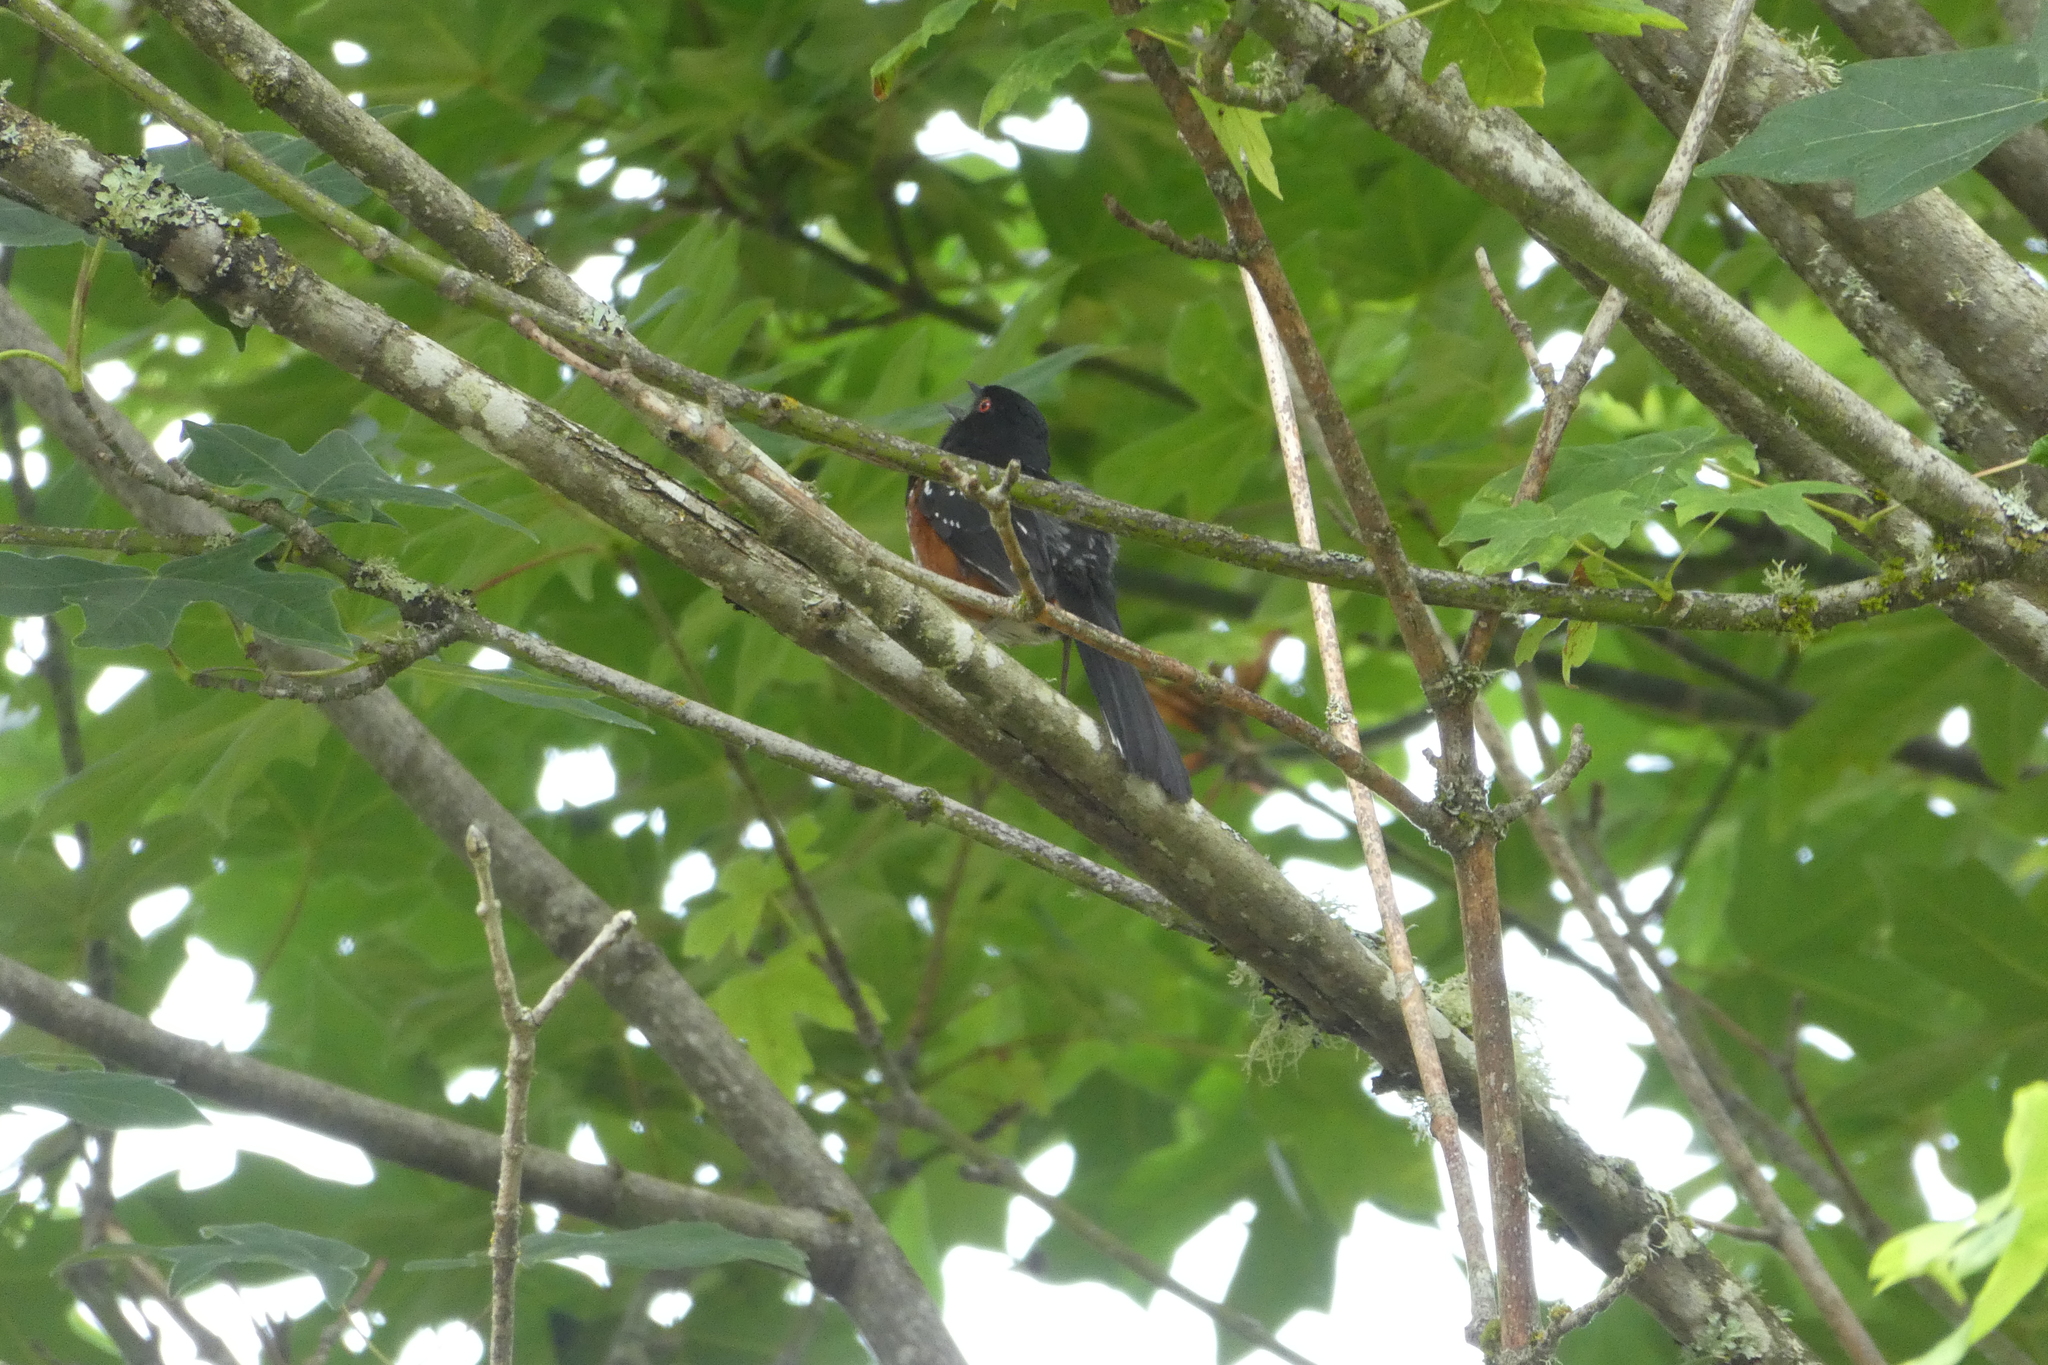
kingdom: Animalia
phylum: Chordata
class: Aves
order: Passeriformes
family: Passerellidae
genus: Pipilo
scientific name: Pipilo maculatus
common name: Spotted towhee
